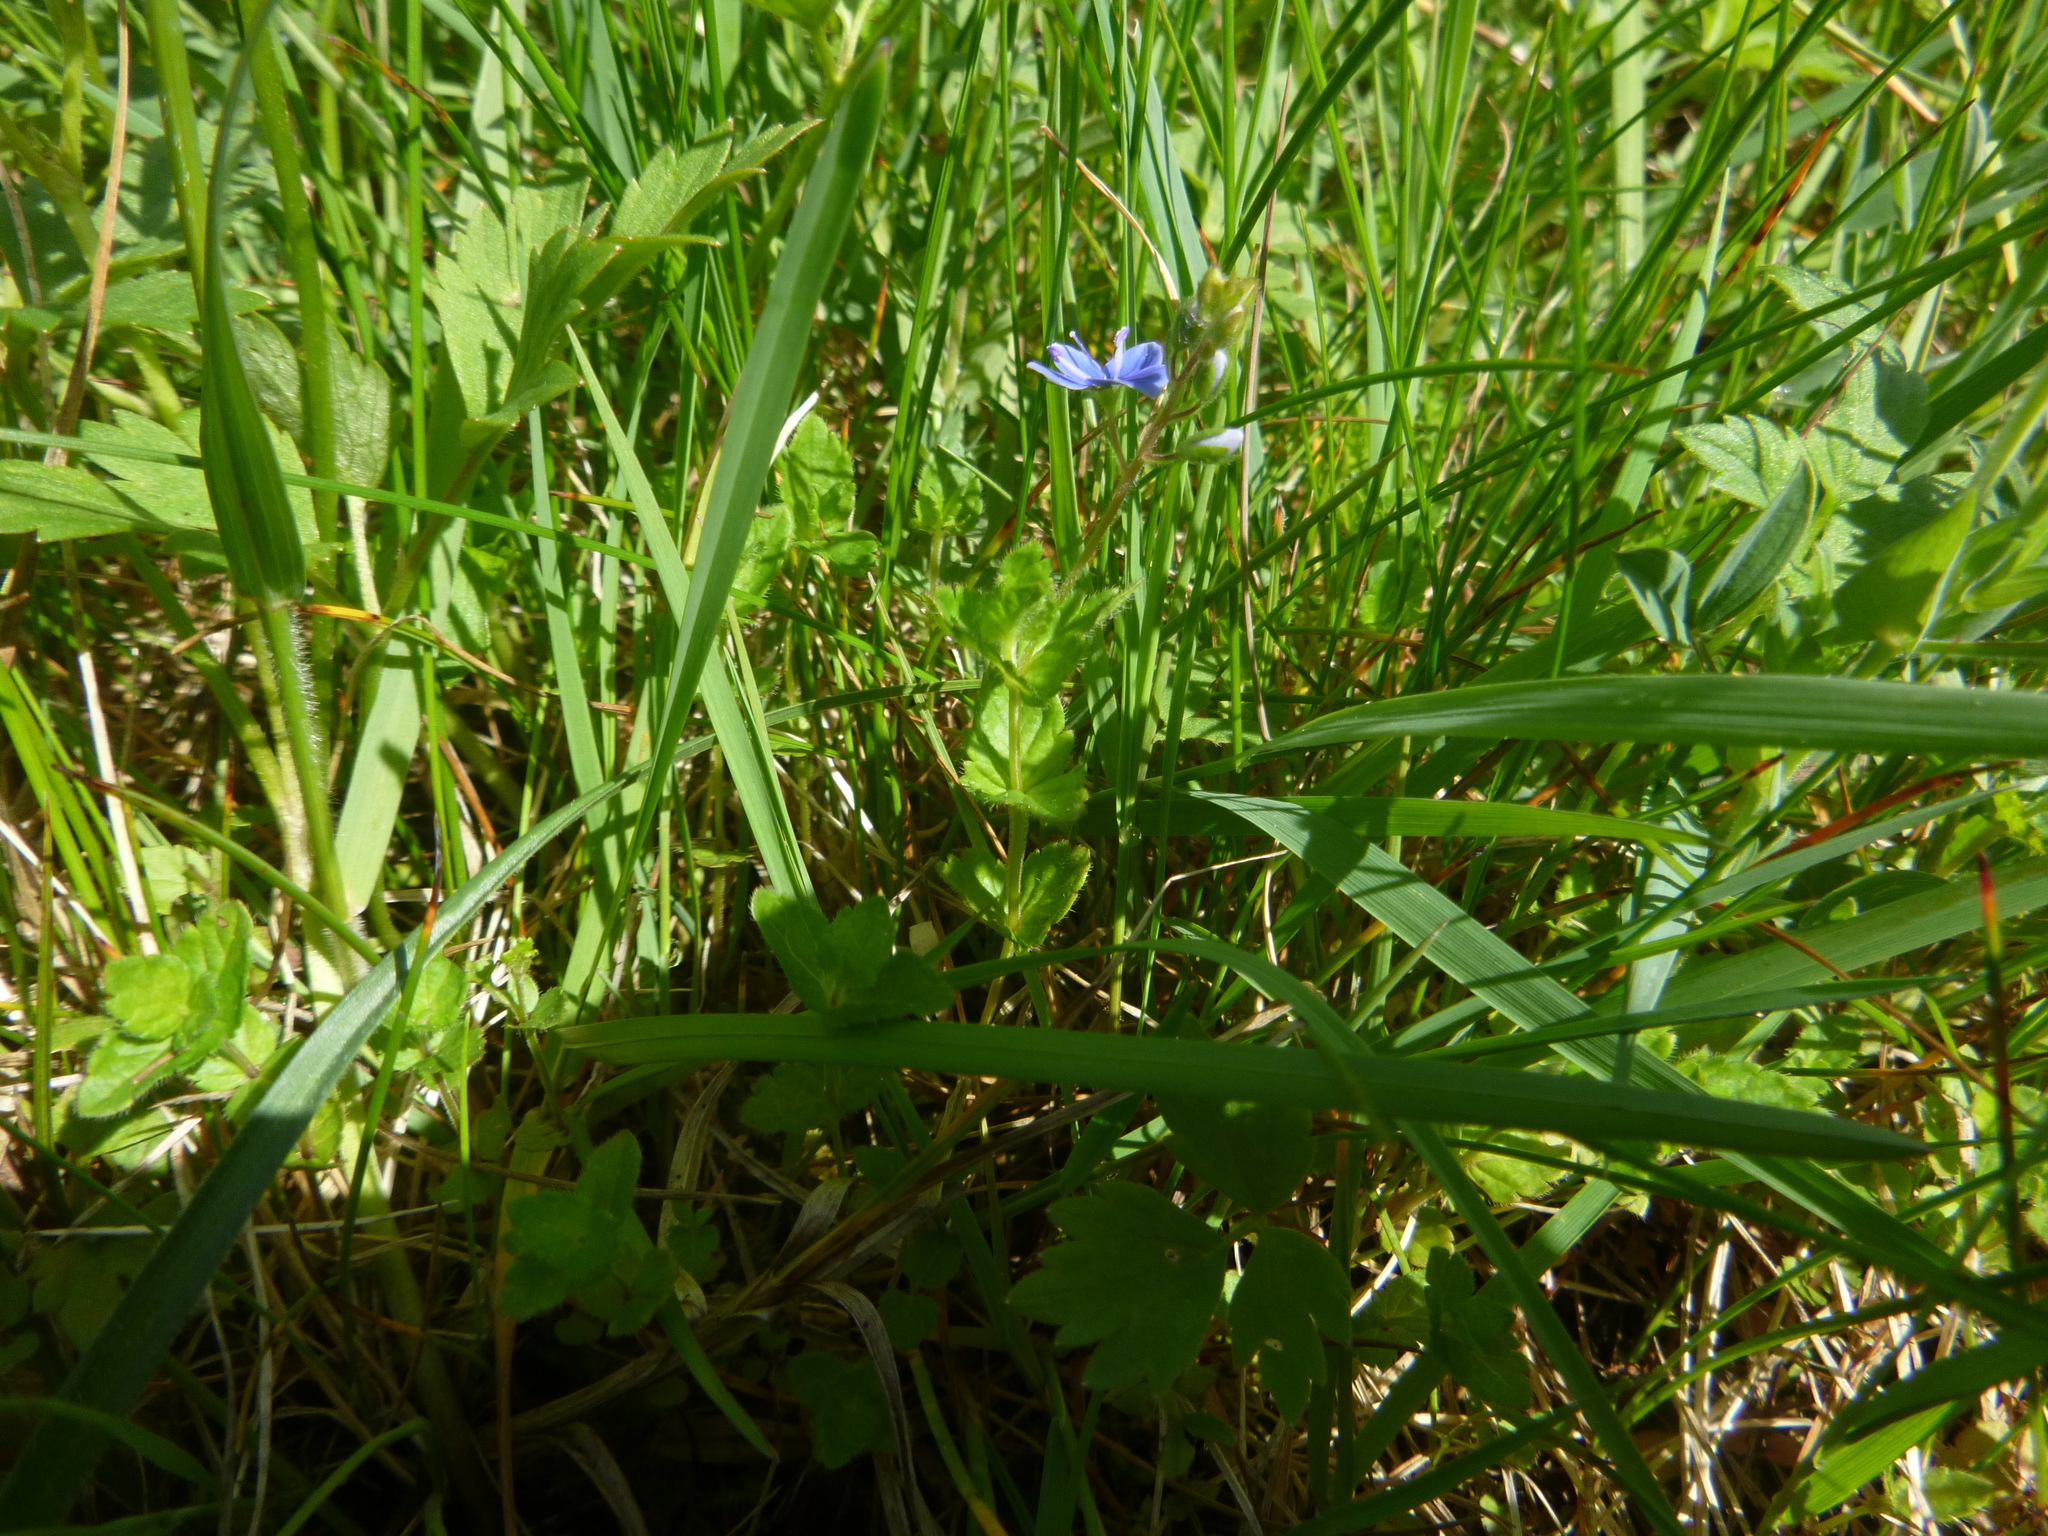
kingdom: Plantae
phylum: Tracheophyta
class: Magnoliopsida
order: Lamiales
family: Plantaginaceae
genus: Veronica
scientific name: Veronica chamaedrys
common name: Germander speedwell
